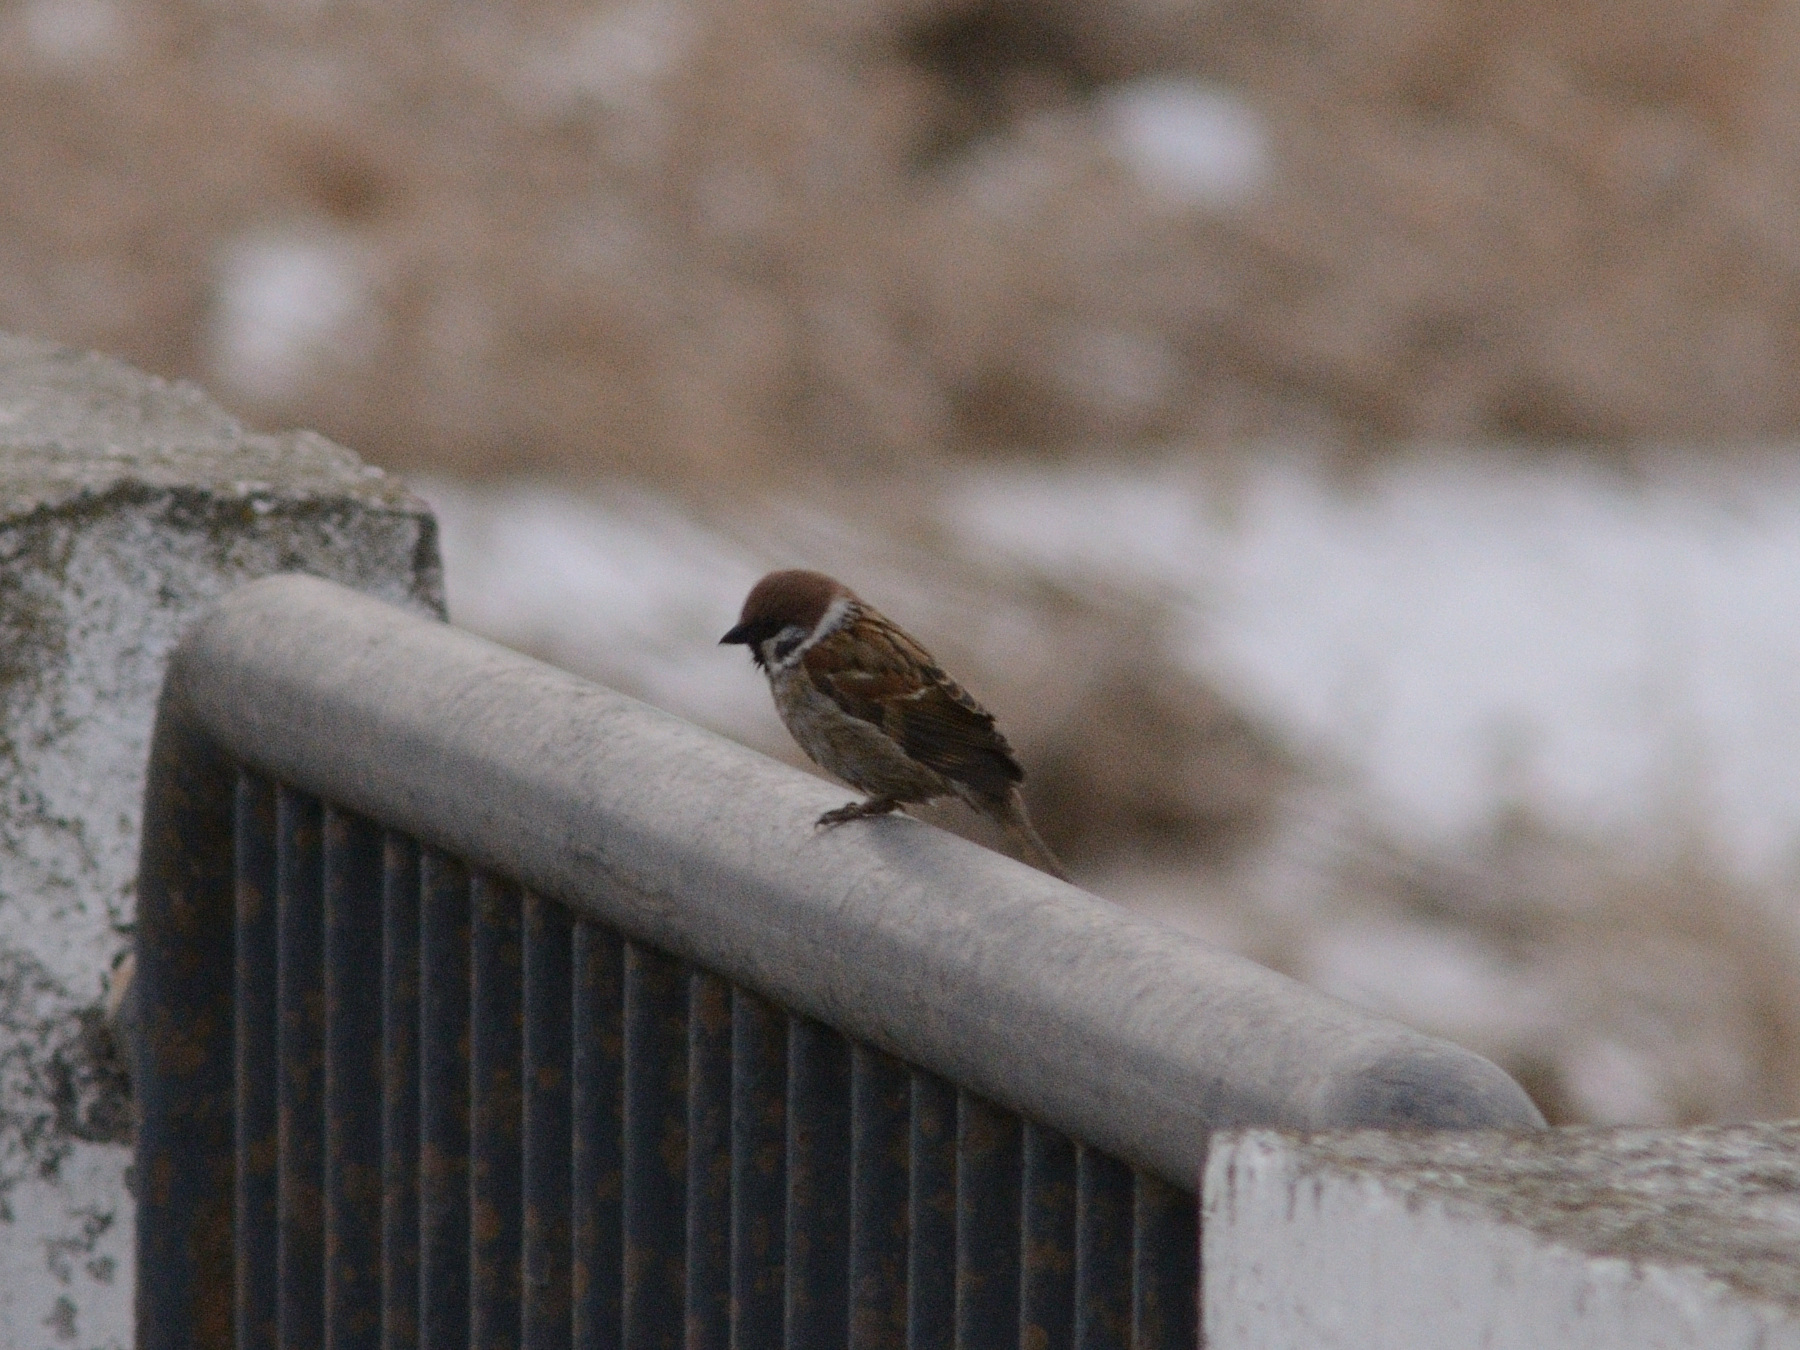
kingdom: Animalia
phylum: Chordata
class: Aves
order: Passeriformes
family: Passeridae
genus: Passer
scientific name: Passer montanus
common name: Eurasian tree sparrow
